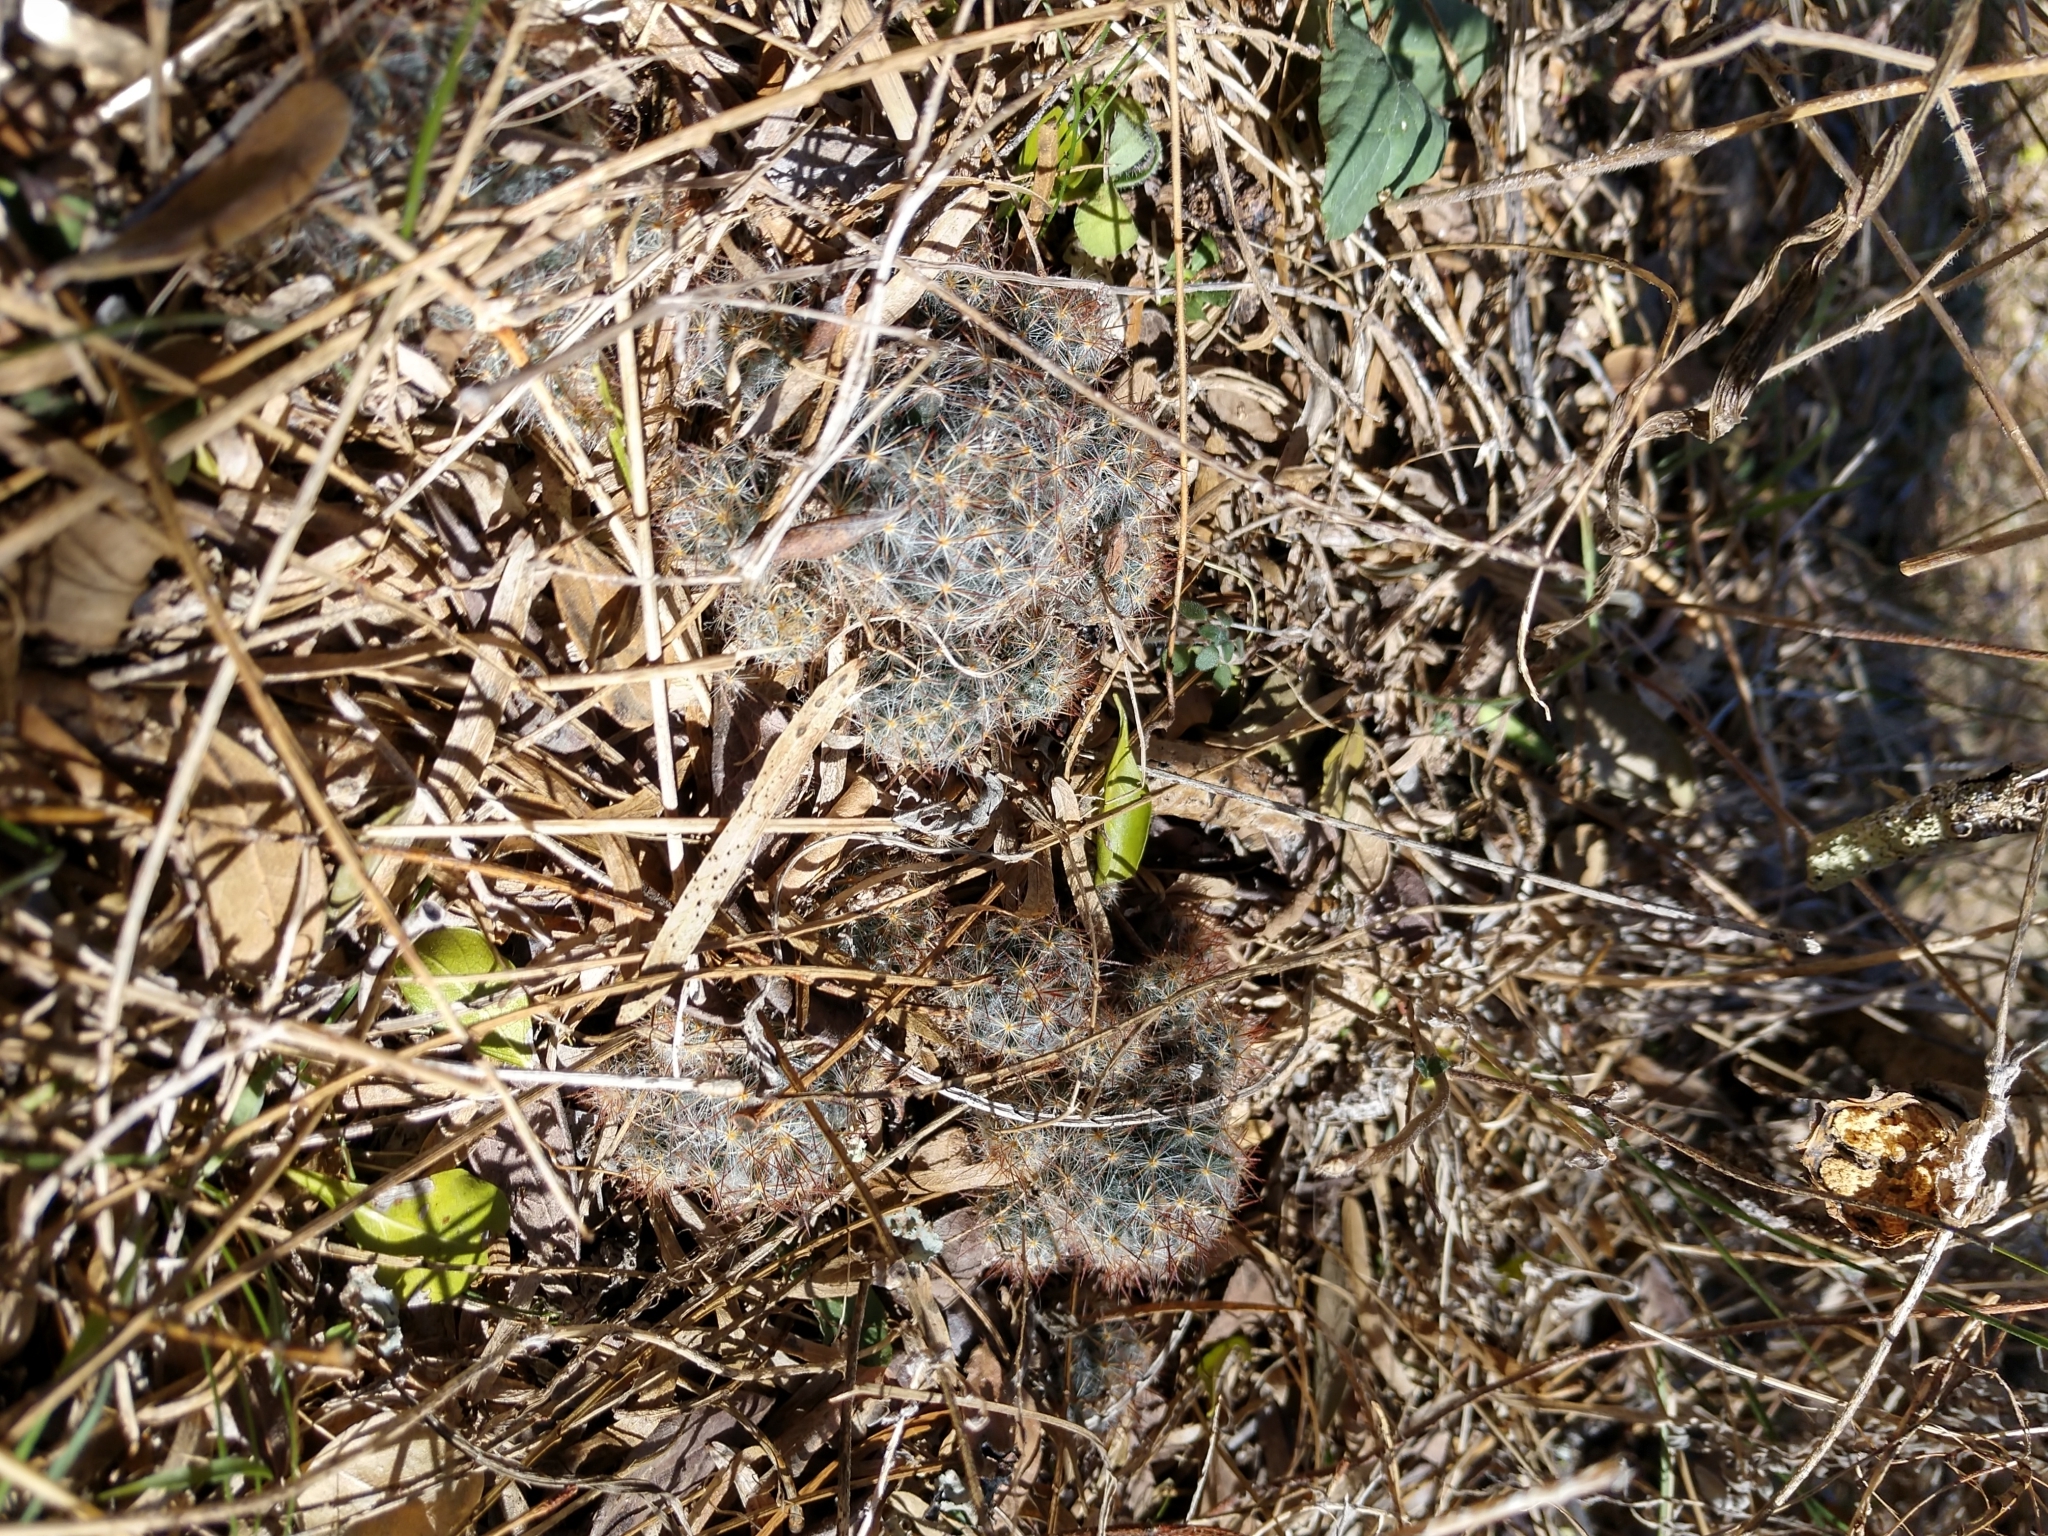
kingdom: Plantae
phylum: Tracheophyta
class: Magnoliopsida
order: Caryophyllales
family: Cactaceae
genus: Mammillaria
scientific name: Mammillaria prolifera
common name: Texas nipple cactus
